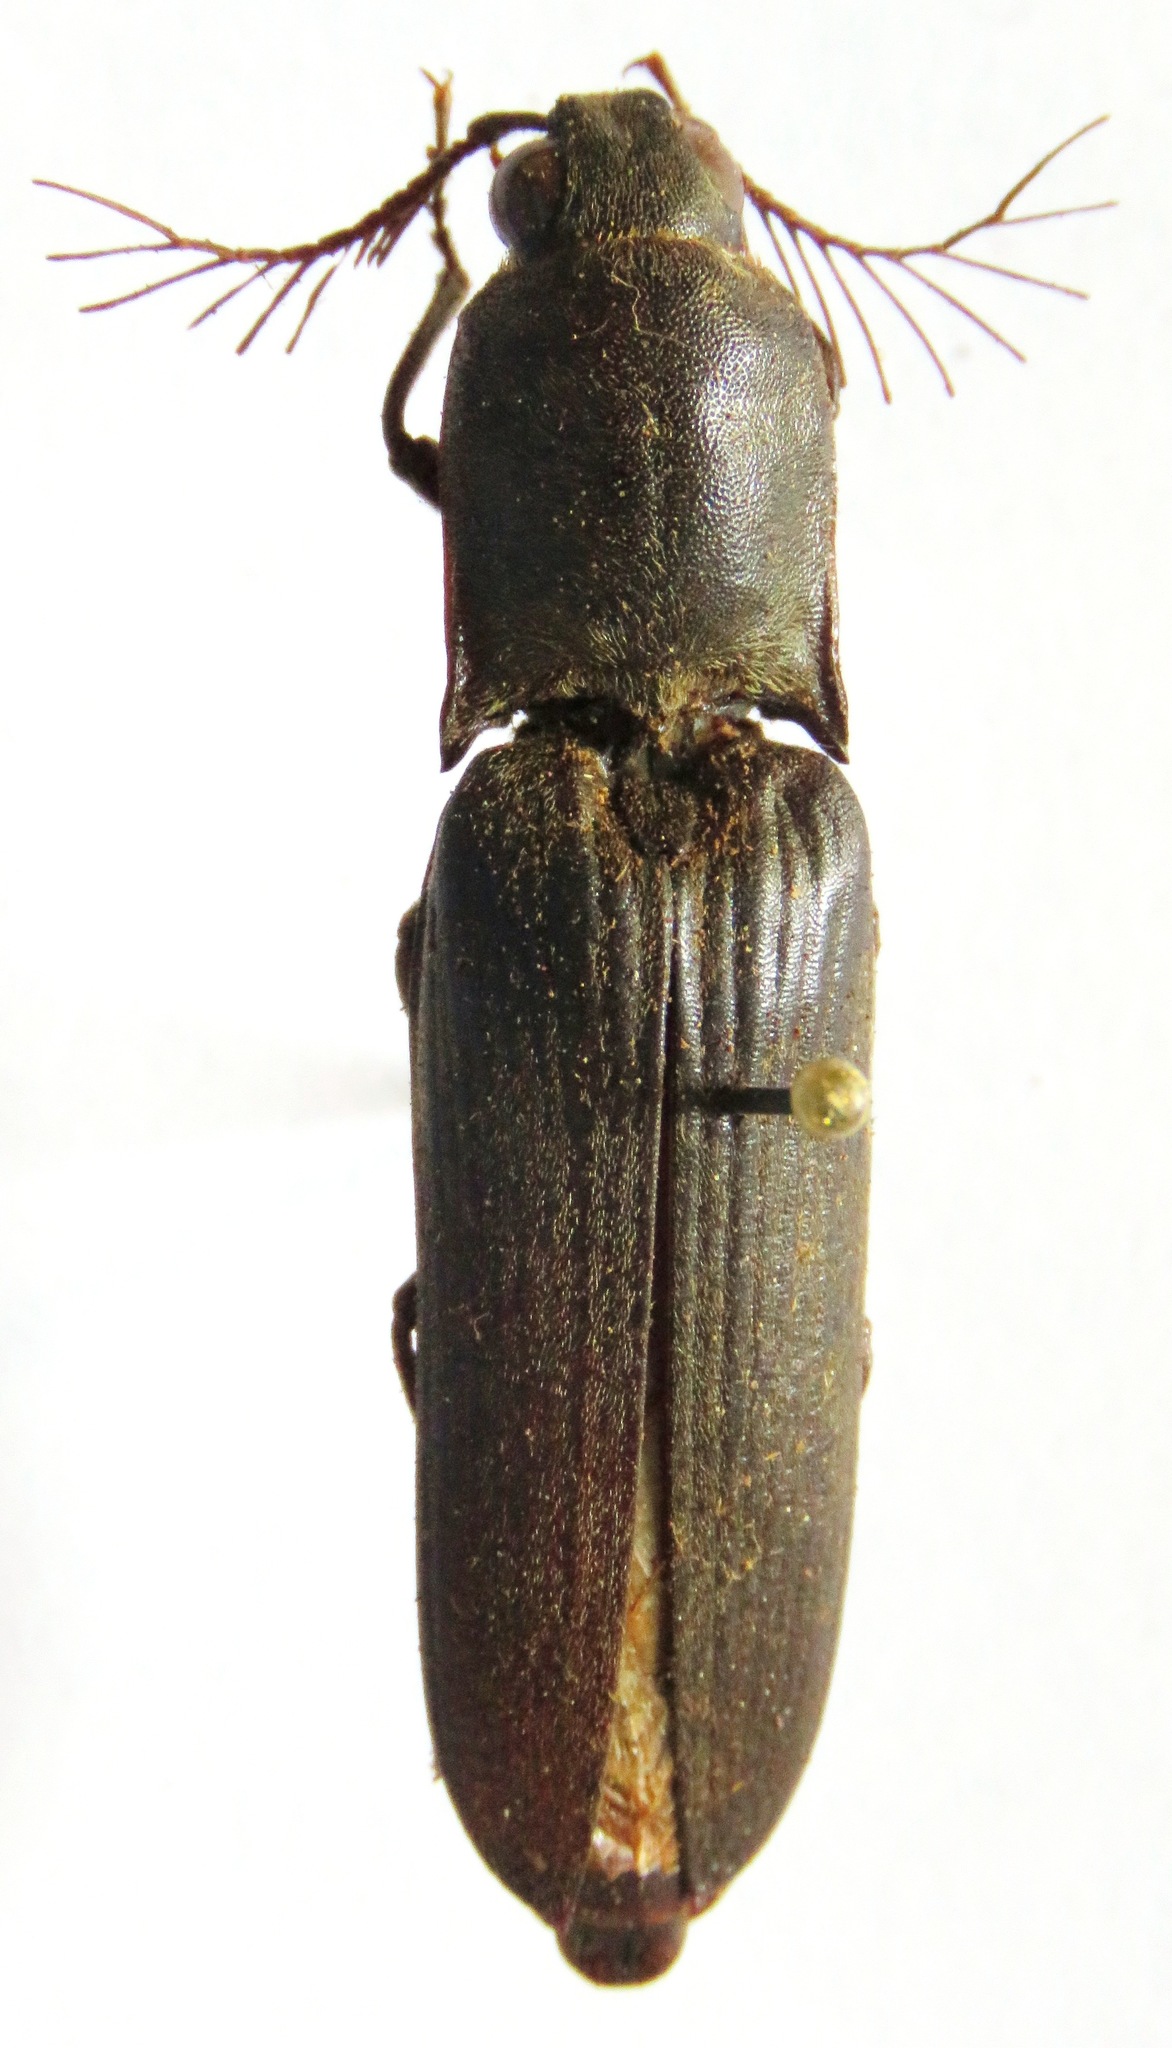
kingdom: Animalia
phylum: Arthropoda
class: Insecta
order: Coleoptera
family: Elateridae
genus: Pseudotetralobus
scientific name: Pseudotetralobus murrayi
